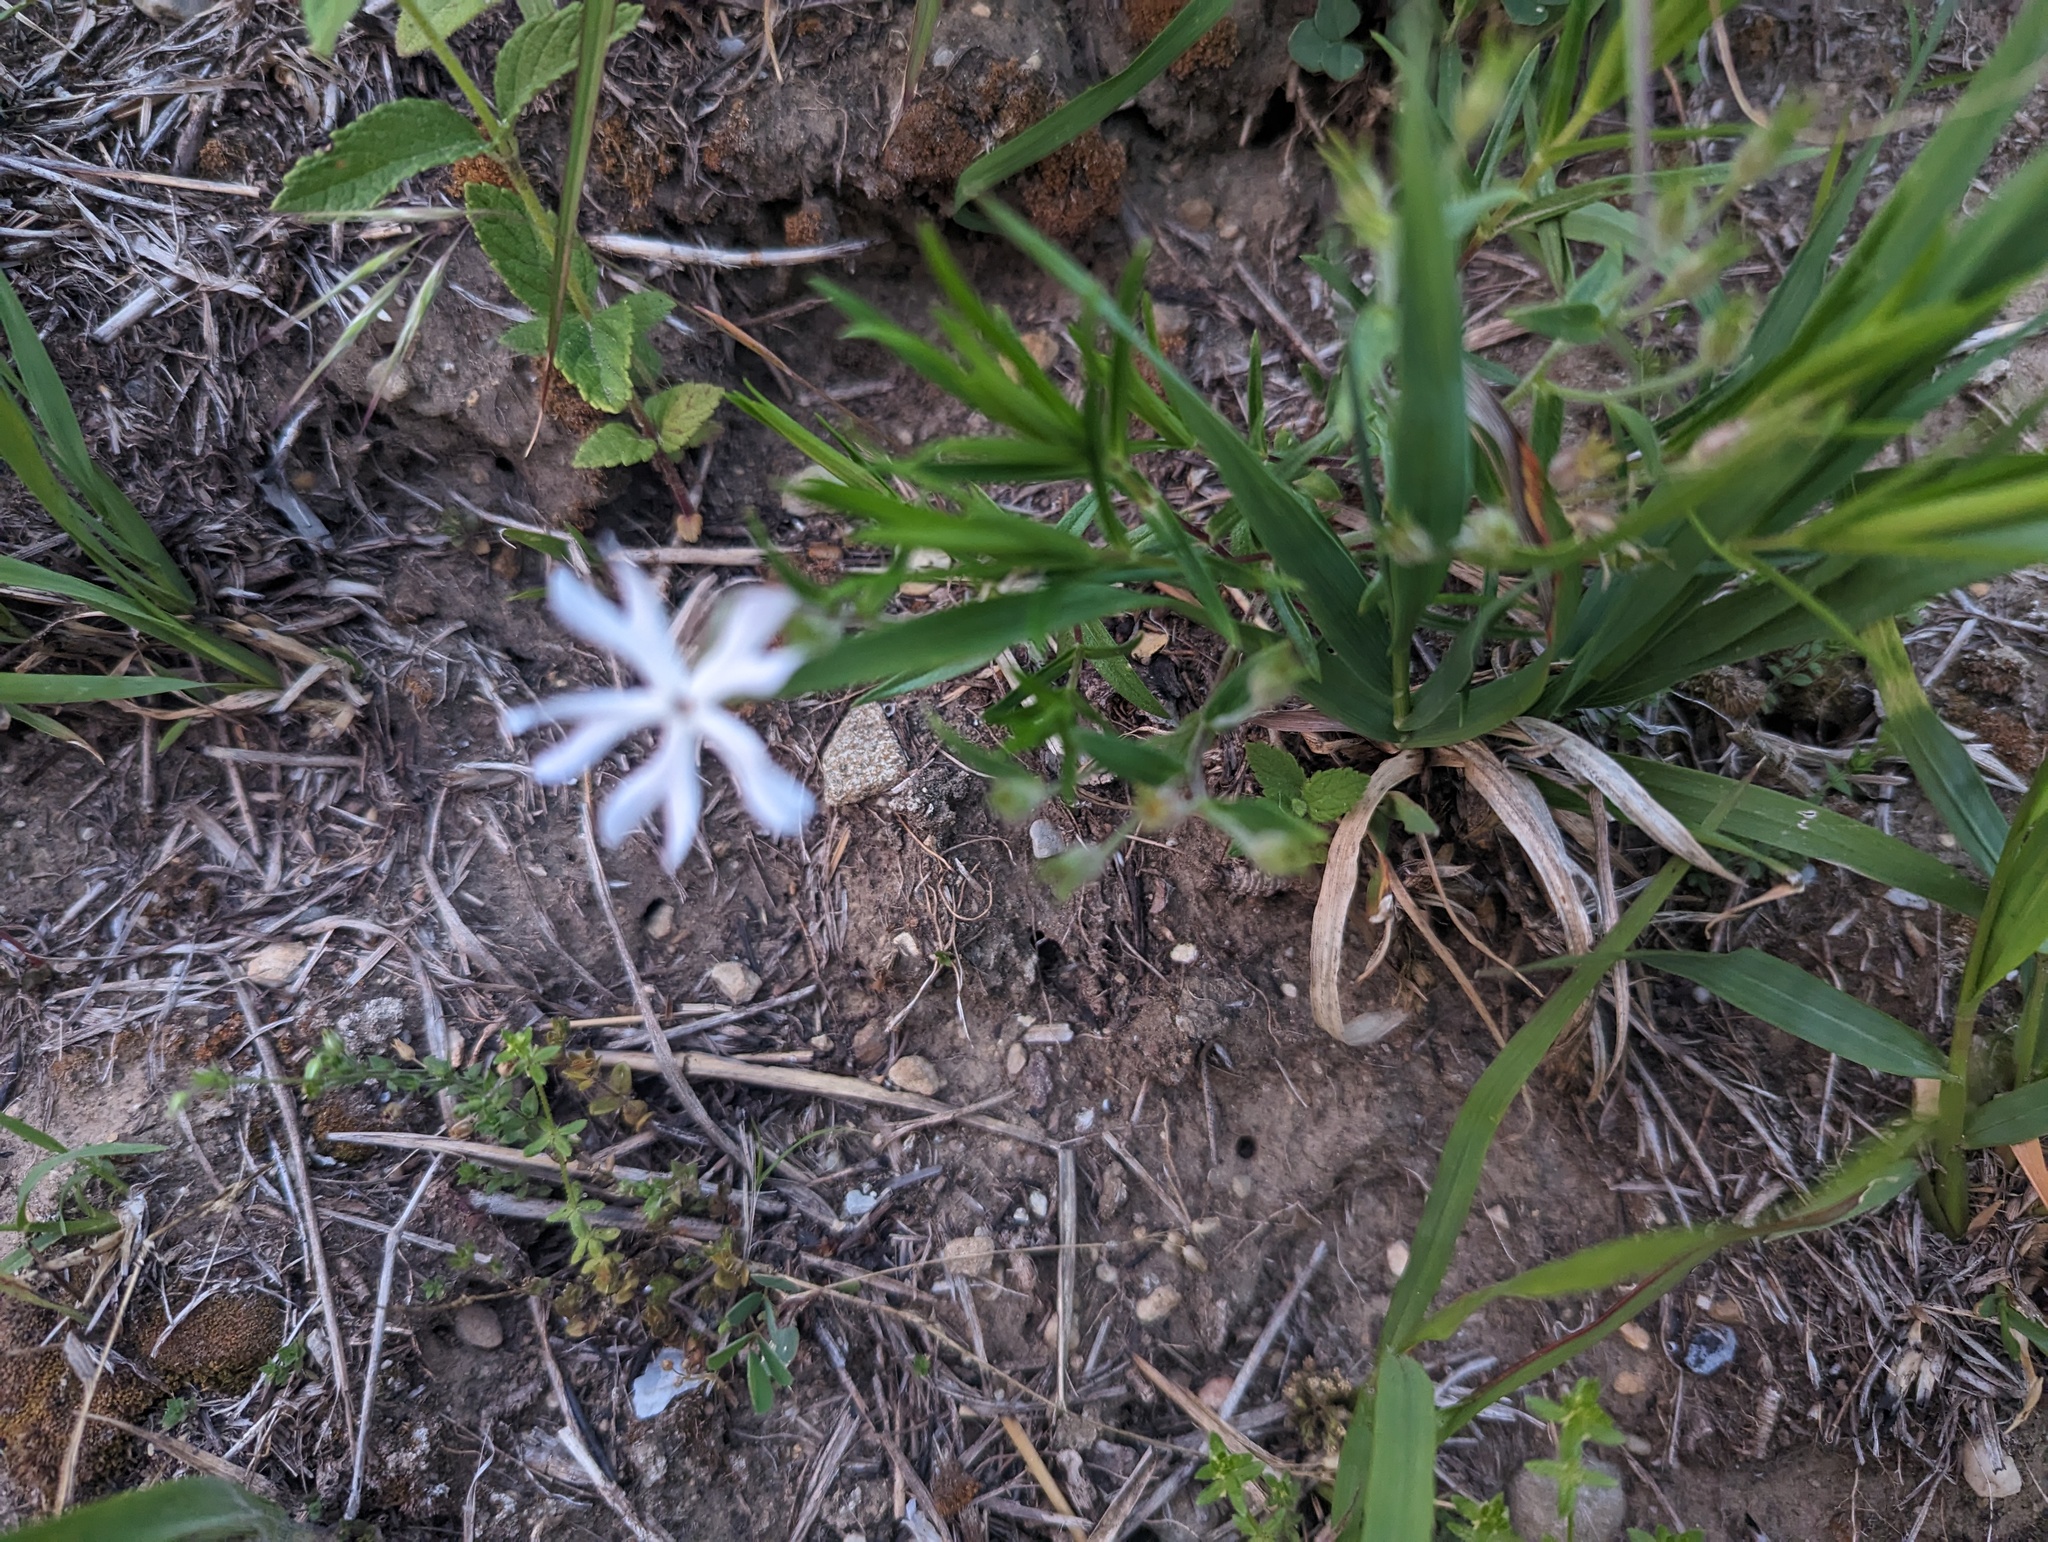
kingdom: Plantae
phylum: Tracheophyta
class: Magnoliopsida
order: Ericales
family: Polemoniaceae
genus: Phlox
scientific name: Phlox bifida
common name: Sand phlox
